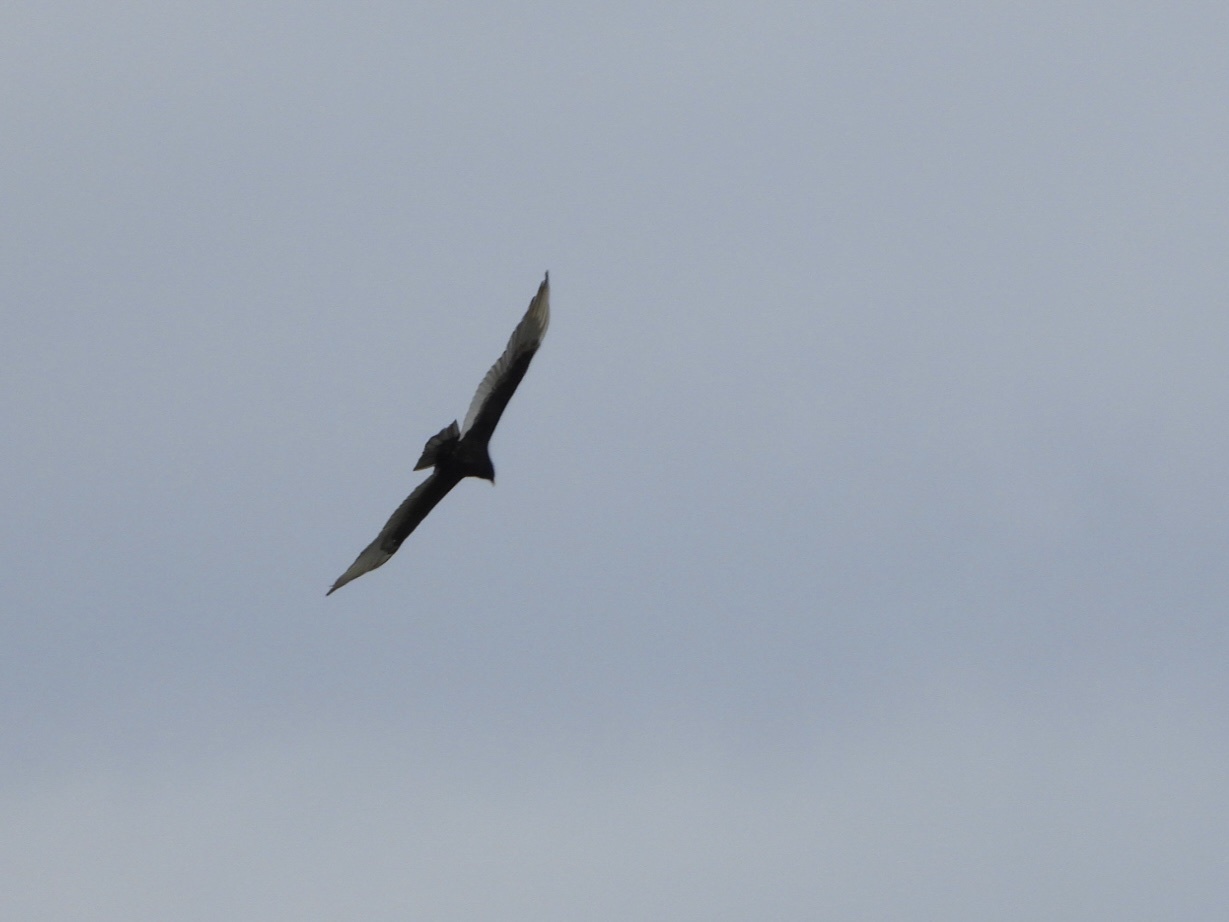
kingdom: Animalia
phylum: Chordata
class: Aves
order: Accipitriformes
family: Cathartidae
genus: Cathartes
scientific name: Cathartes aura
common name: Turkey vulture
